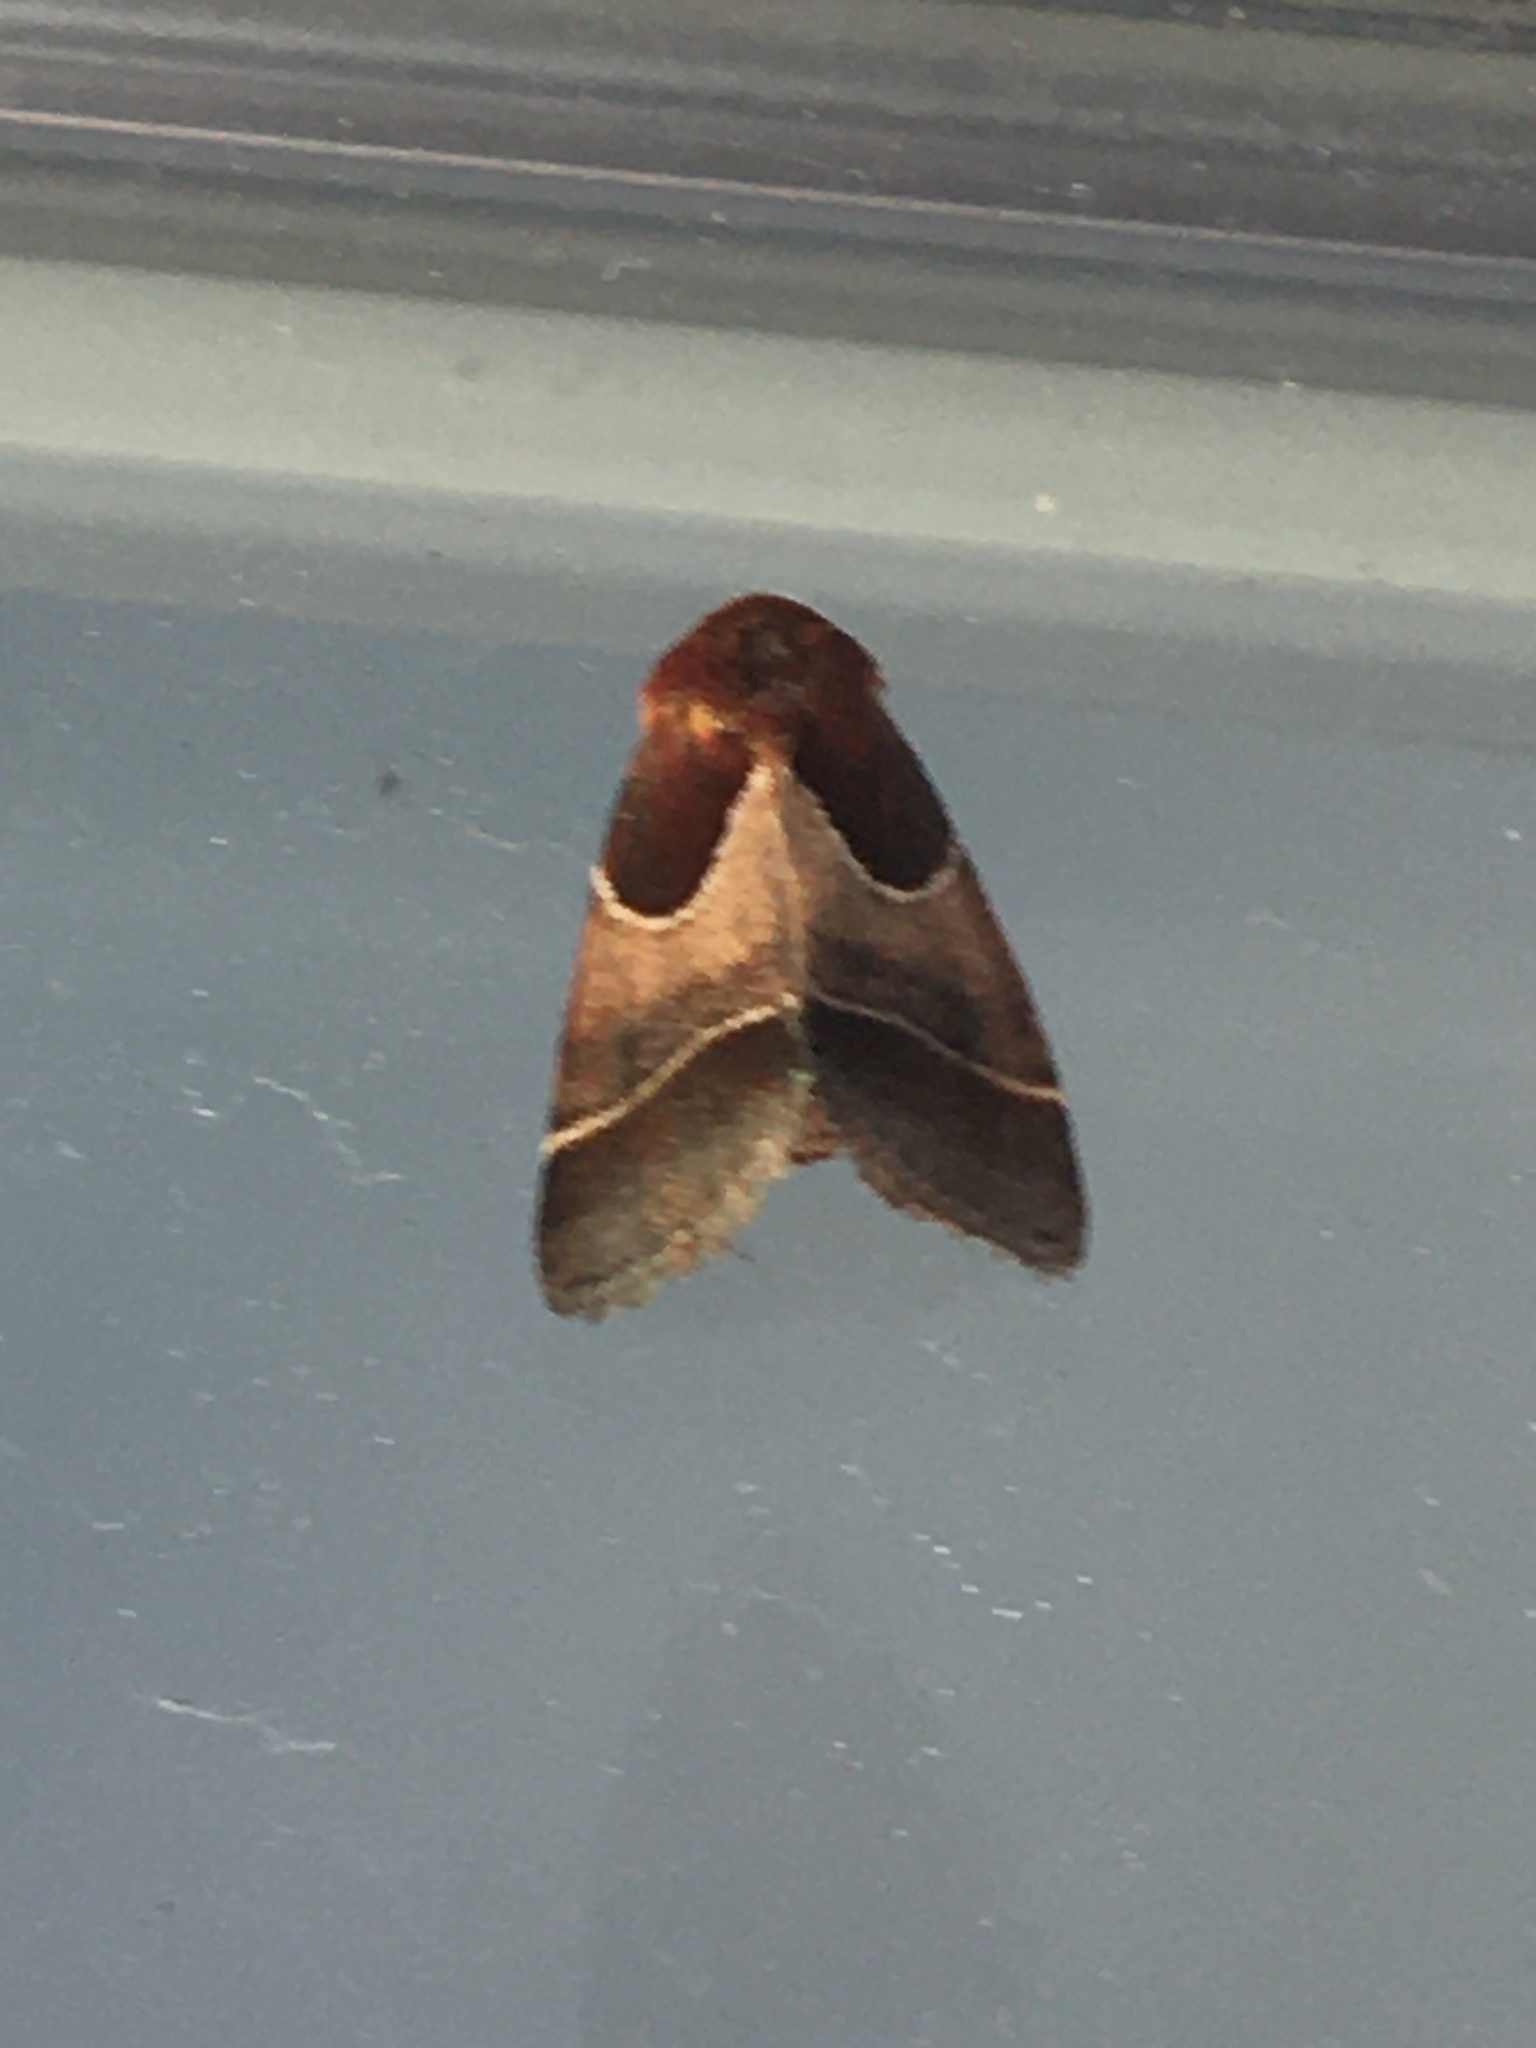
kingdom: Animalia
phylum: Arthropoda
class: Insecta
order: Lepidoptera
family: Noctuidae
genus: Schinia
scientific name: Schinia arcigera
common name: Arcigera flower moth
